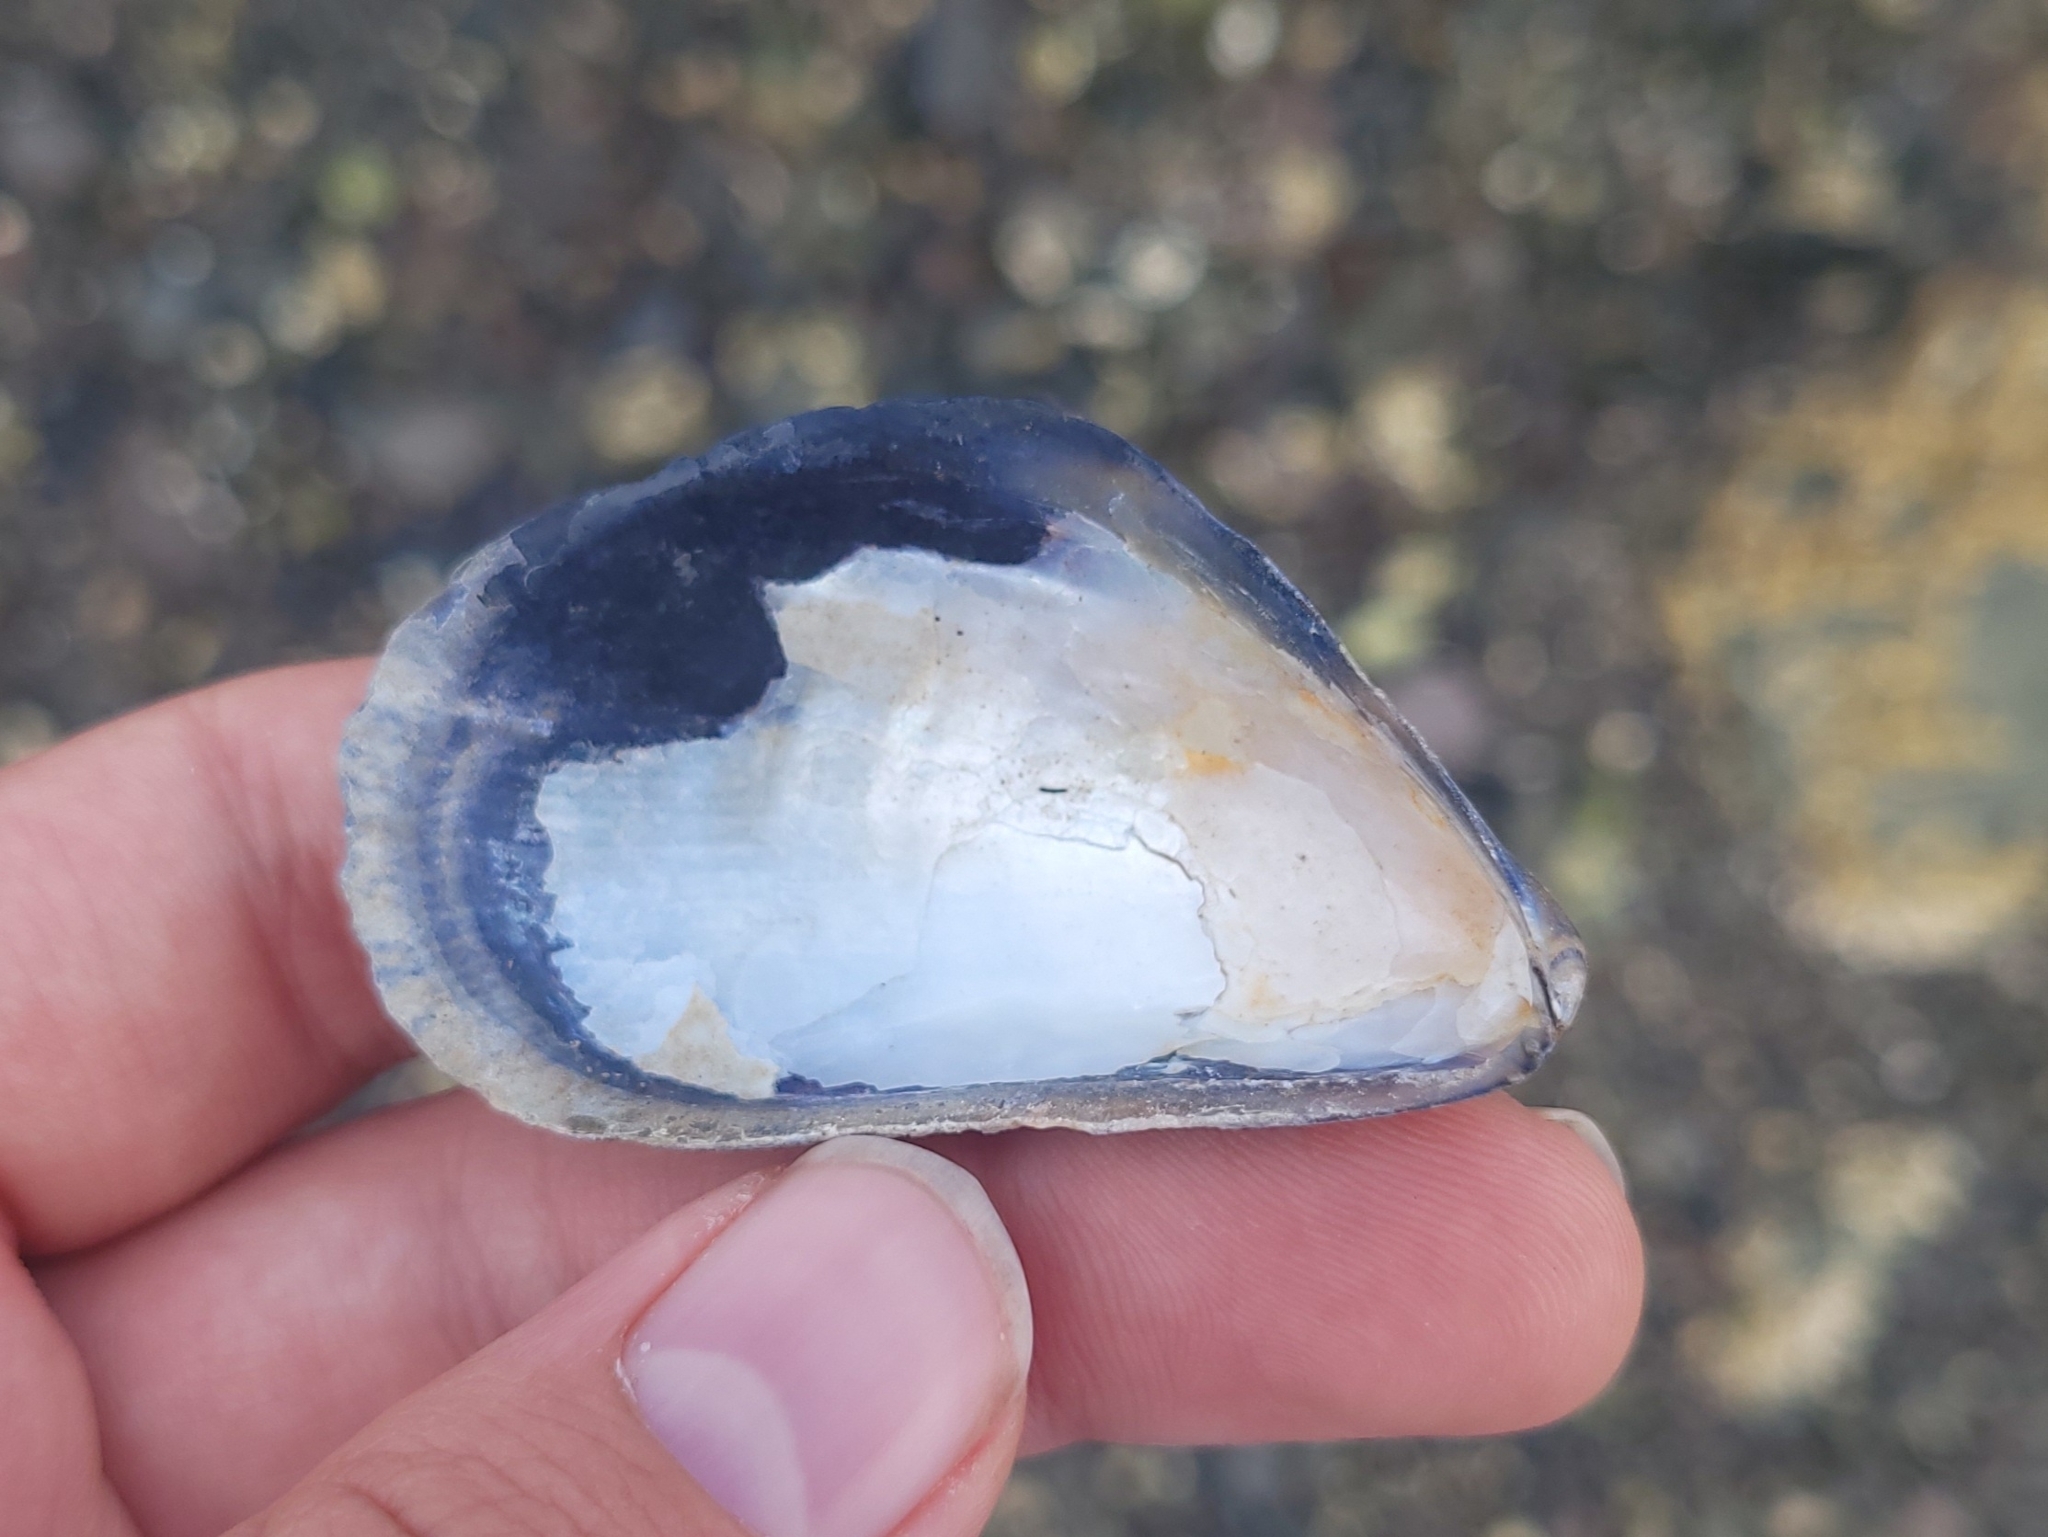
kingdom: Animalia
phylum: Mollusca
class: Bivalvia
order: Mytilida
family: Mytilidae
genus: Mytilus
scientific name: Mytilus
